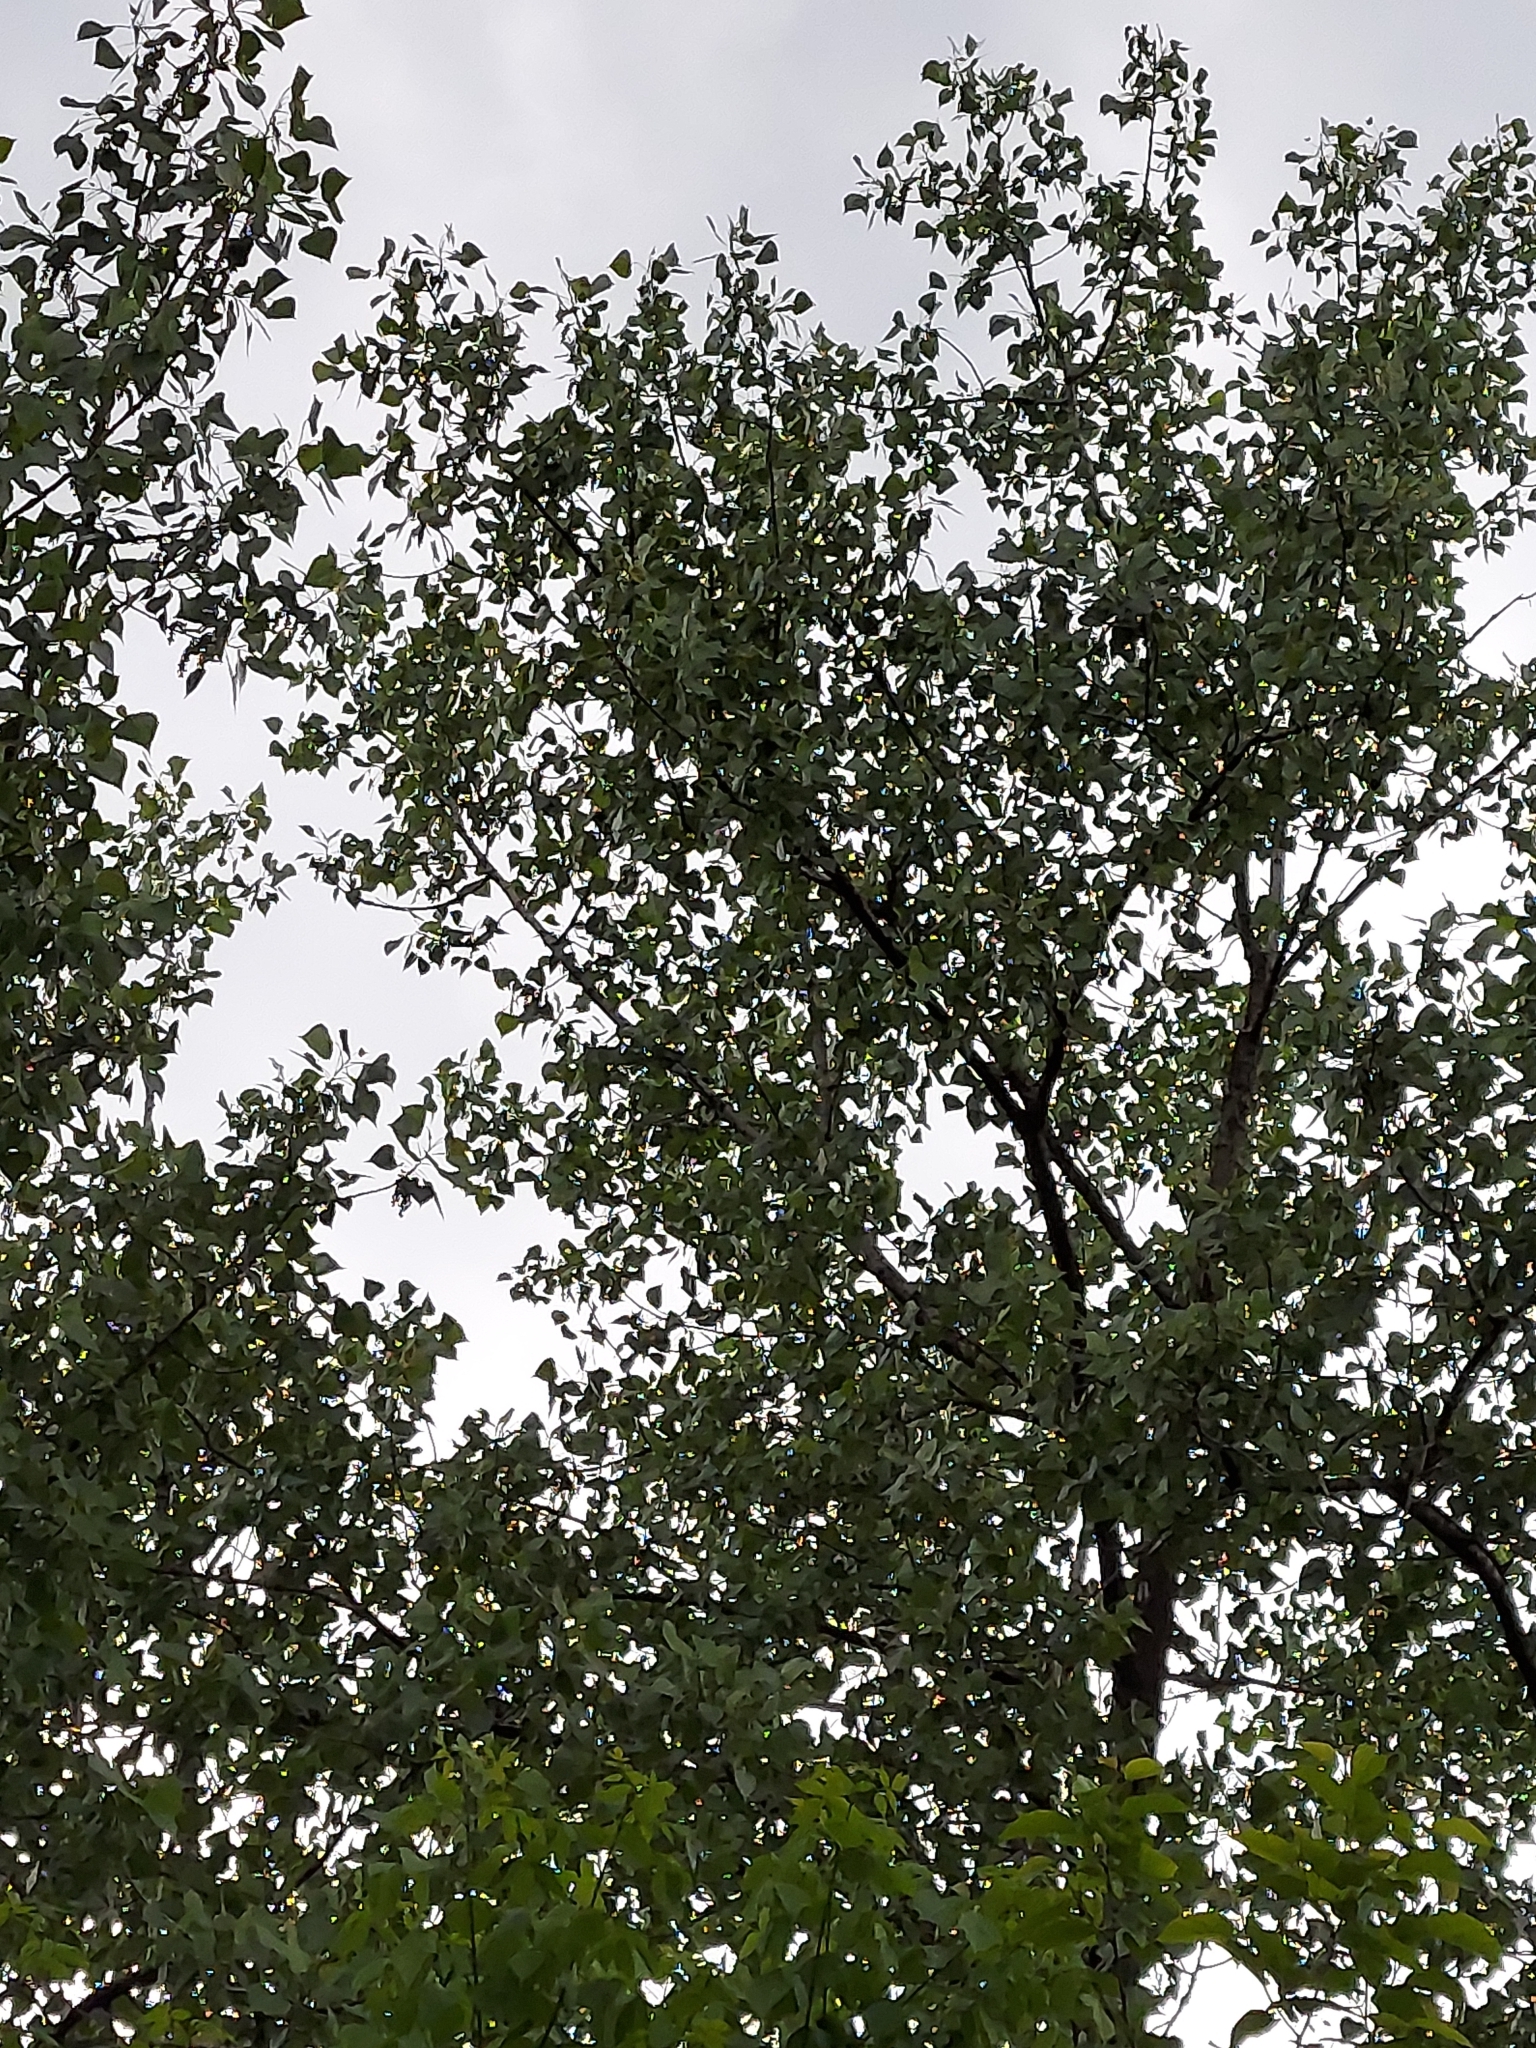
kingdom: Plantae
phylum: Tracheophyta
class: Magnoliopsida
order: Malpighiales
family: Salicaceae
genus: Populus
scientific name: Populus deltoides
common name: Eastern cottonwood
